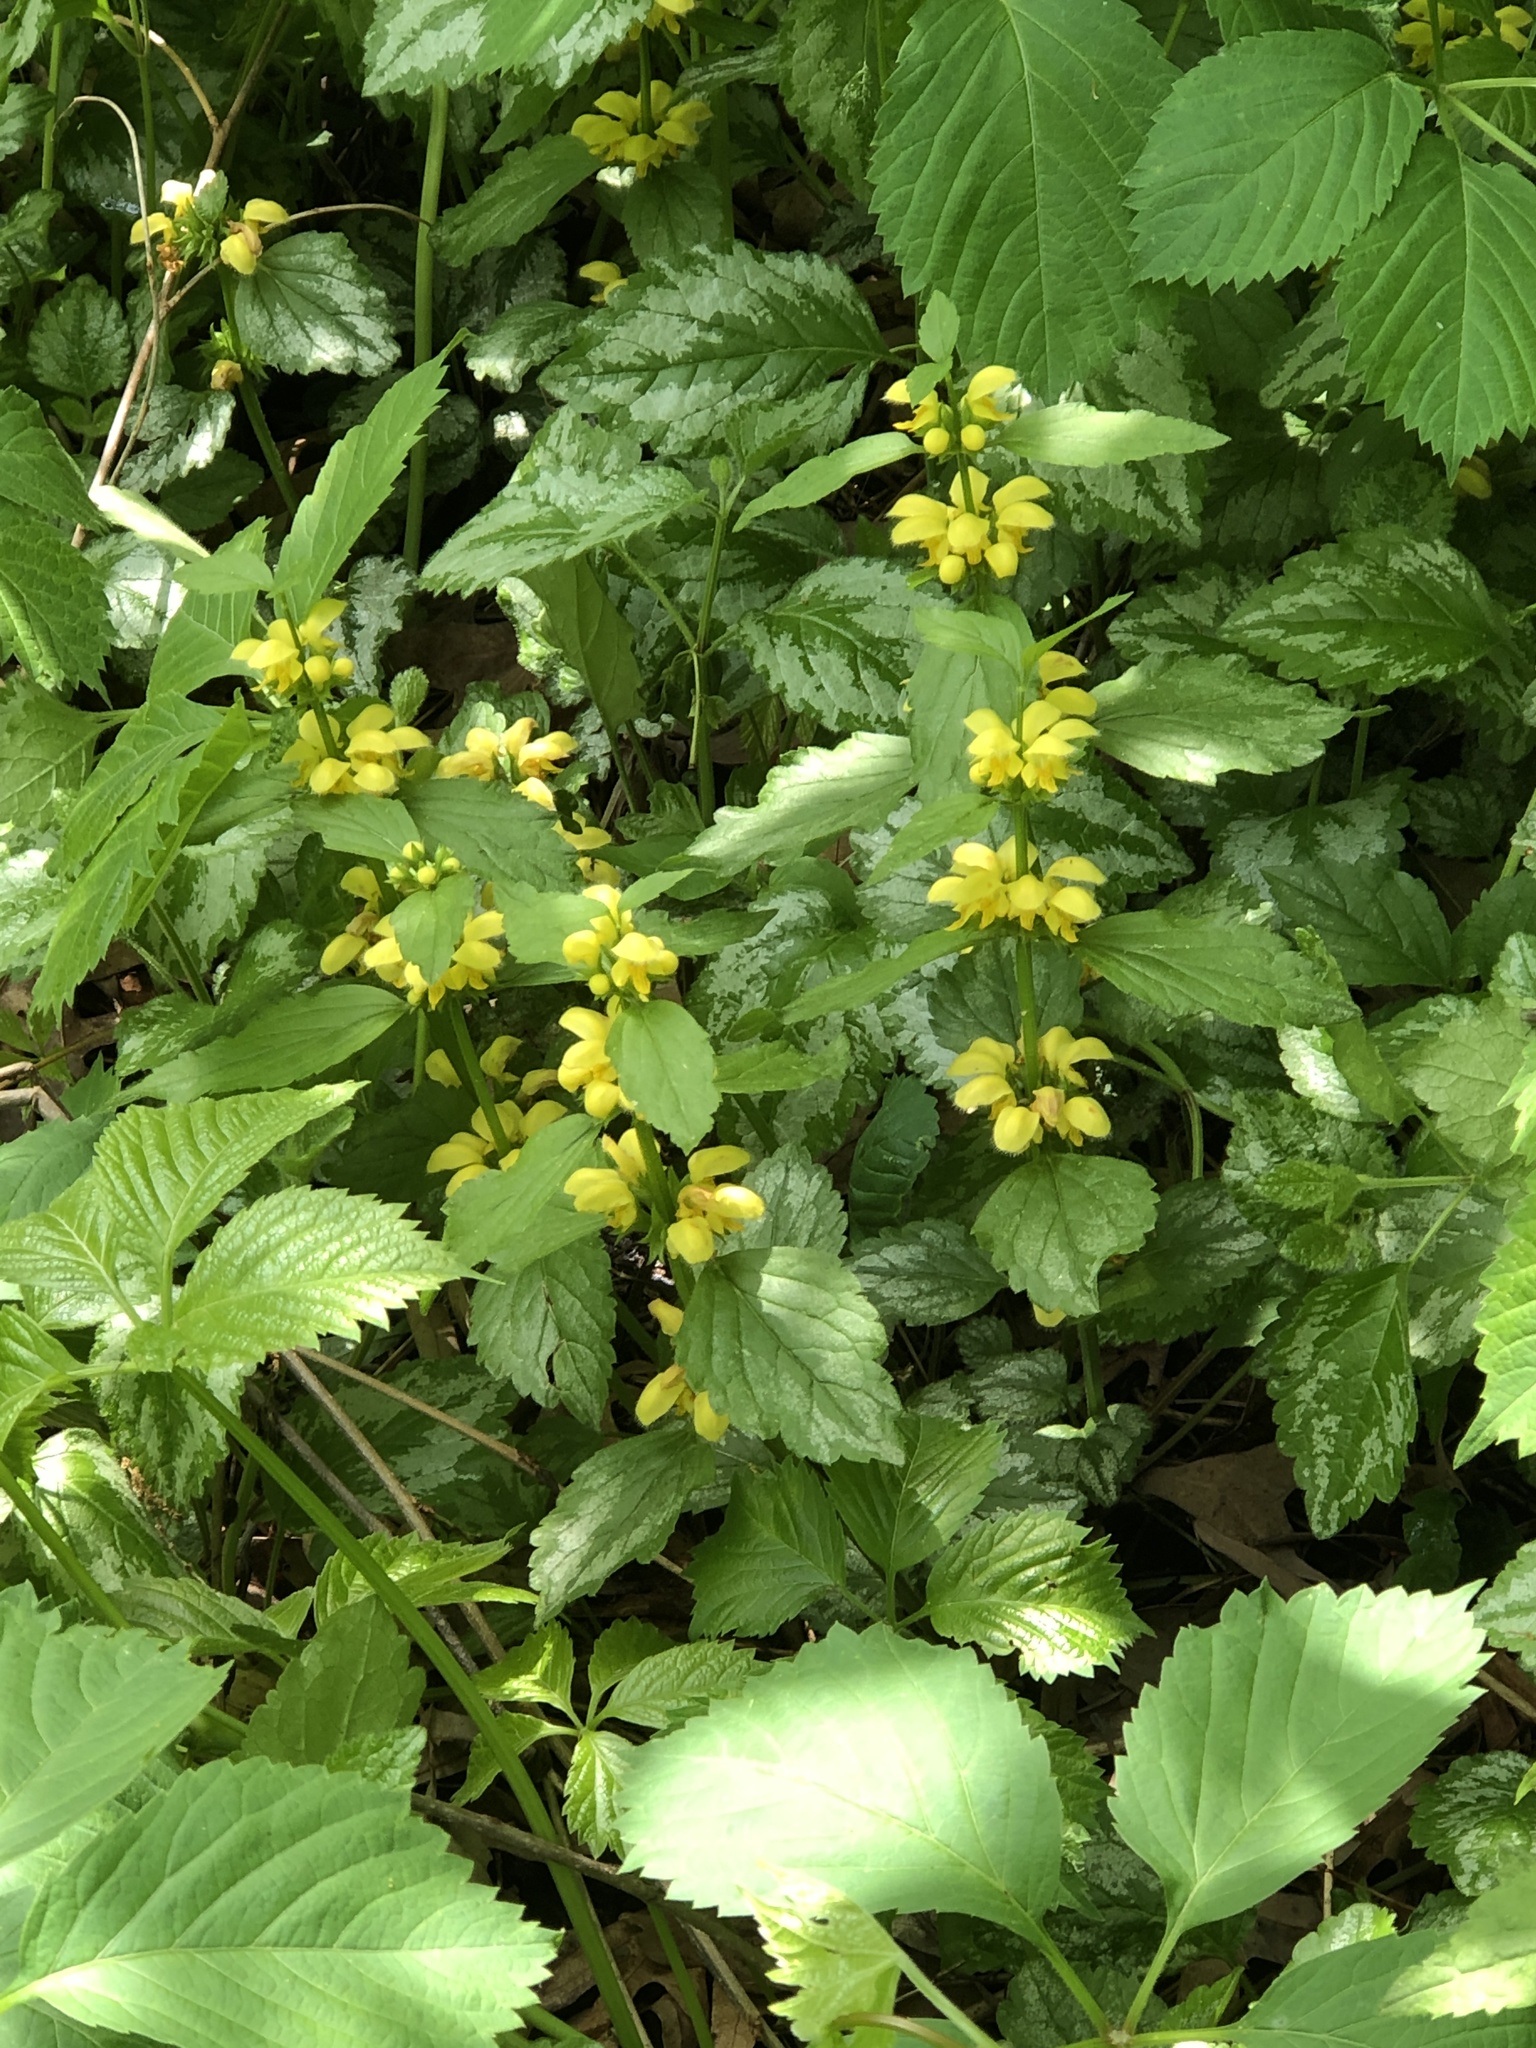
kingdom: Plantae
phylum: Tracheophyta
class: Magnoliopsida
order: Lamiales
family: Lamiaceae
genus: Lamium
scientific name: Lamium galeobdolon
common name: Yellow archangel
